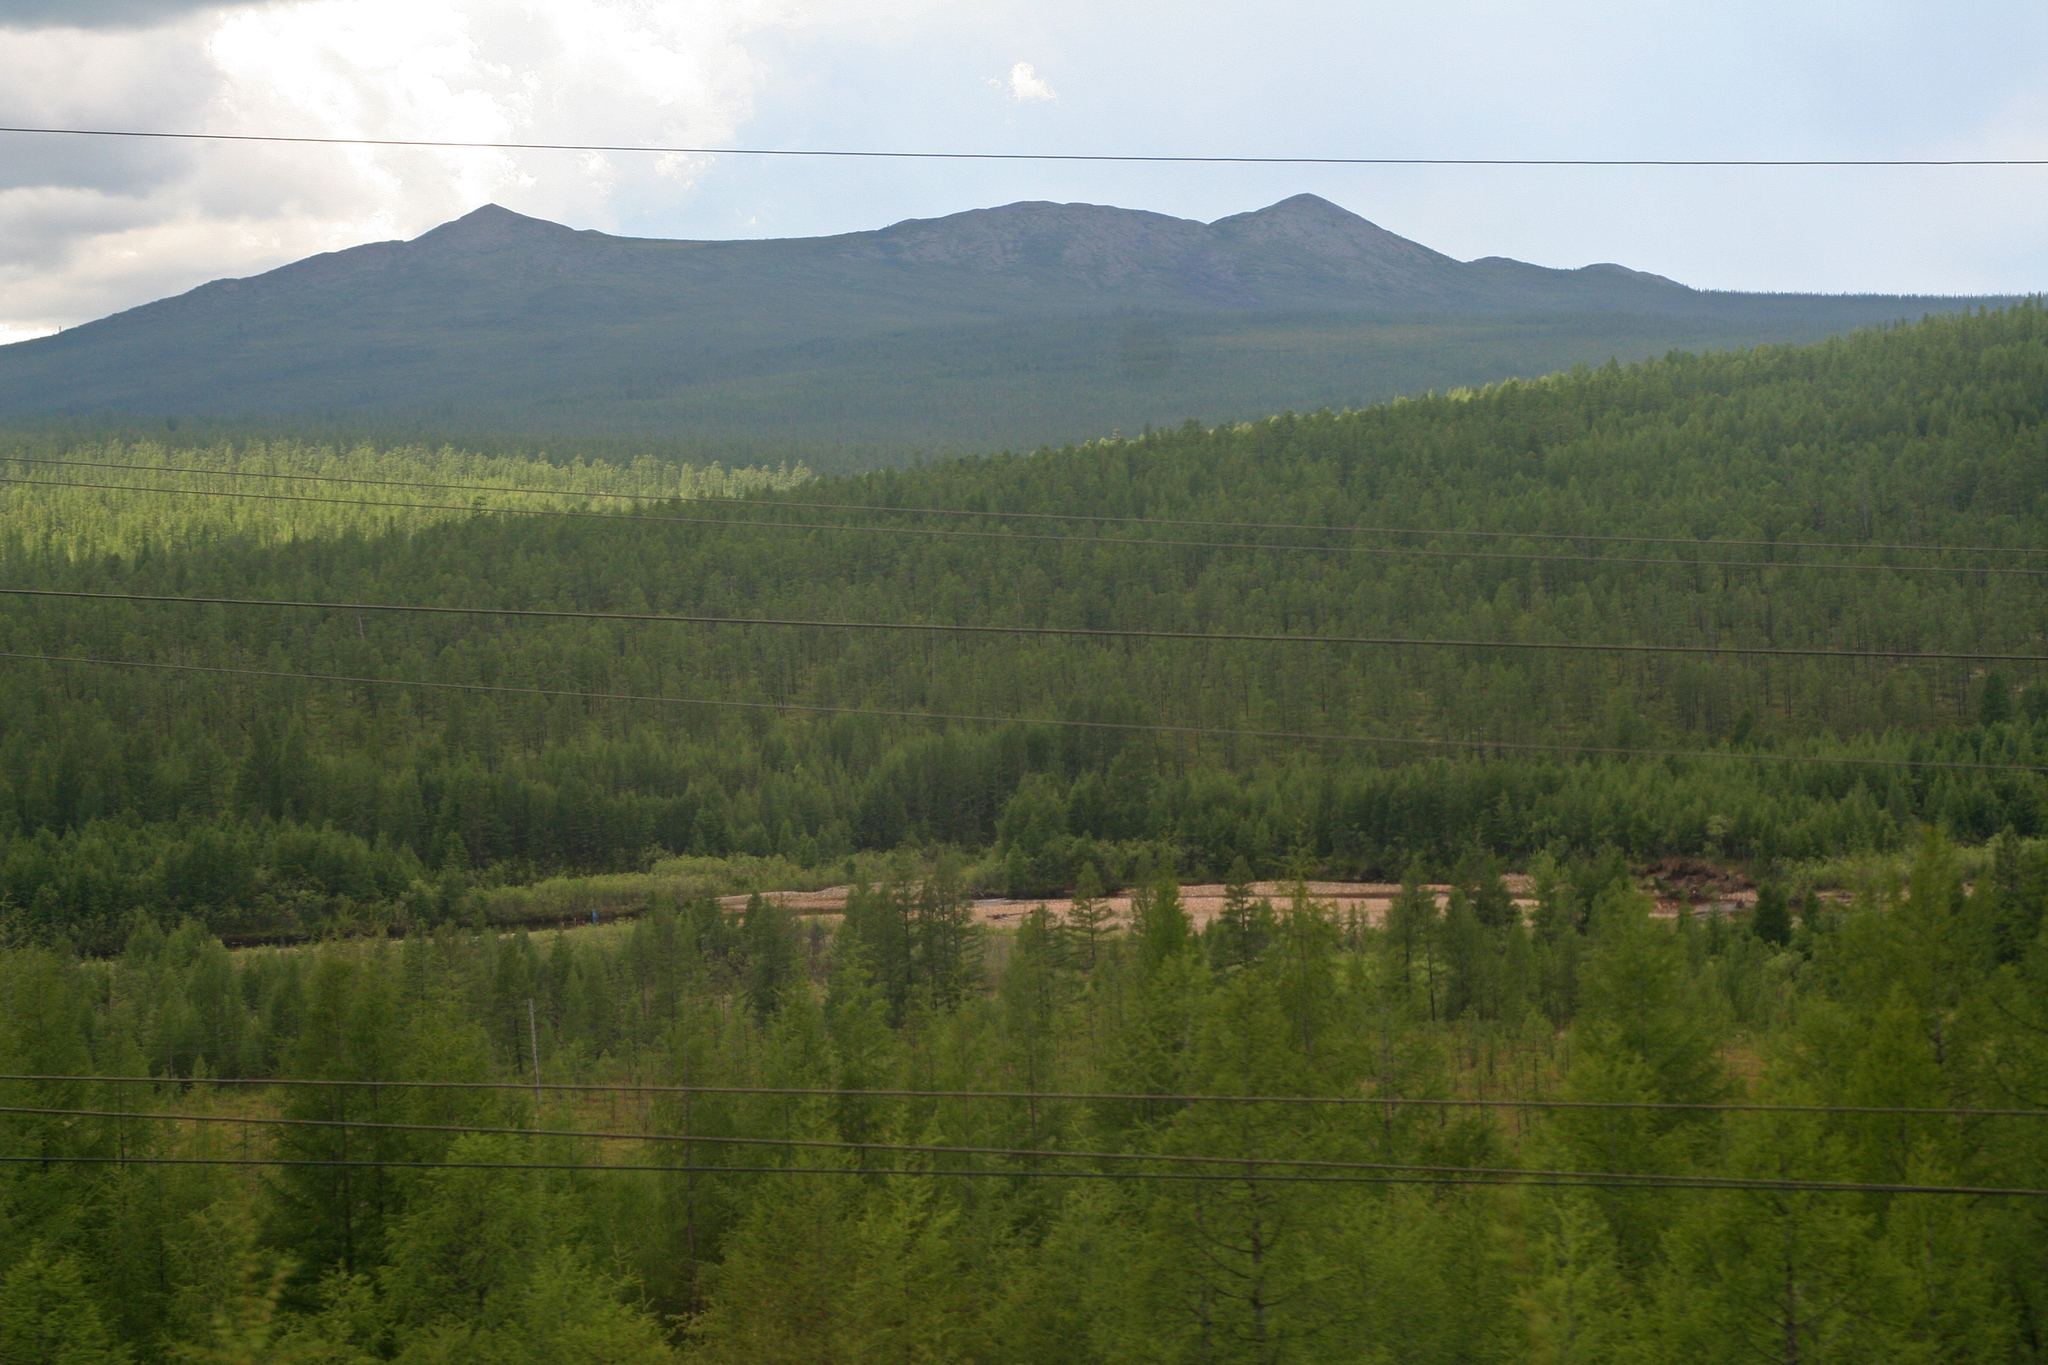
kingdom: Plantae
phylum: Tracheophyta
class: Pinopsida
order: Pinales
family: Pinaceae
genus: Larix
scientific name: Larix gmelinii
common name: Dahurian larch
